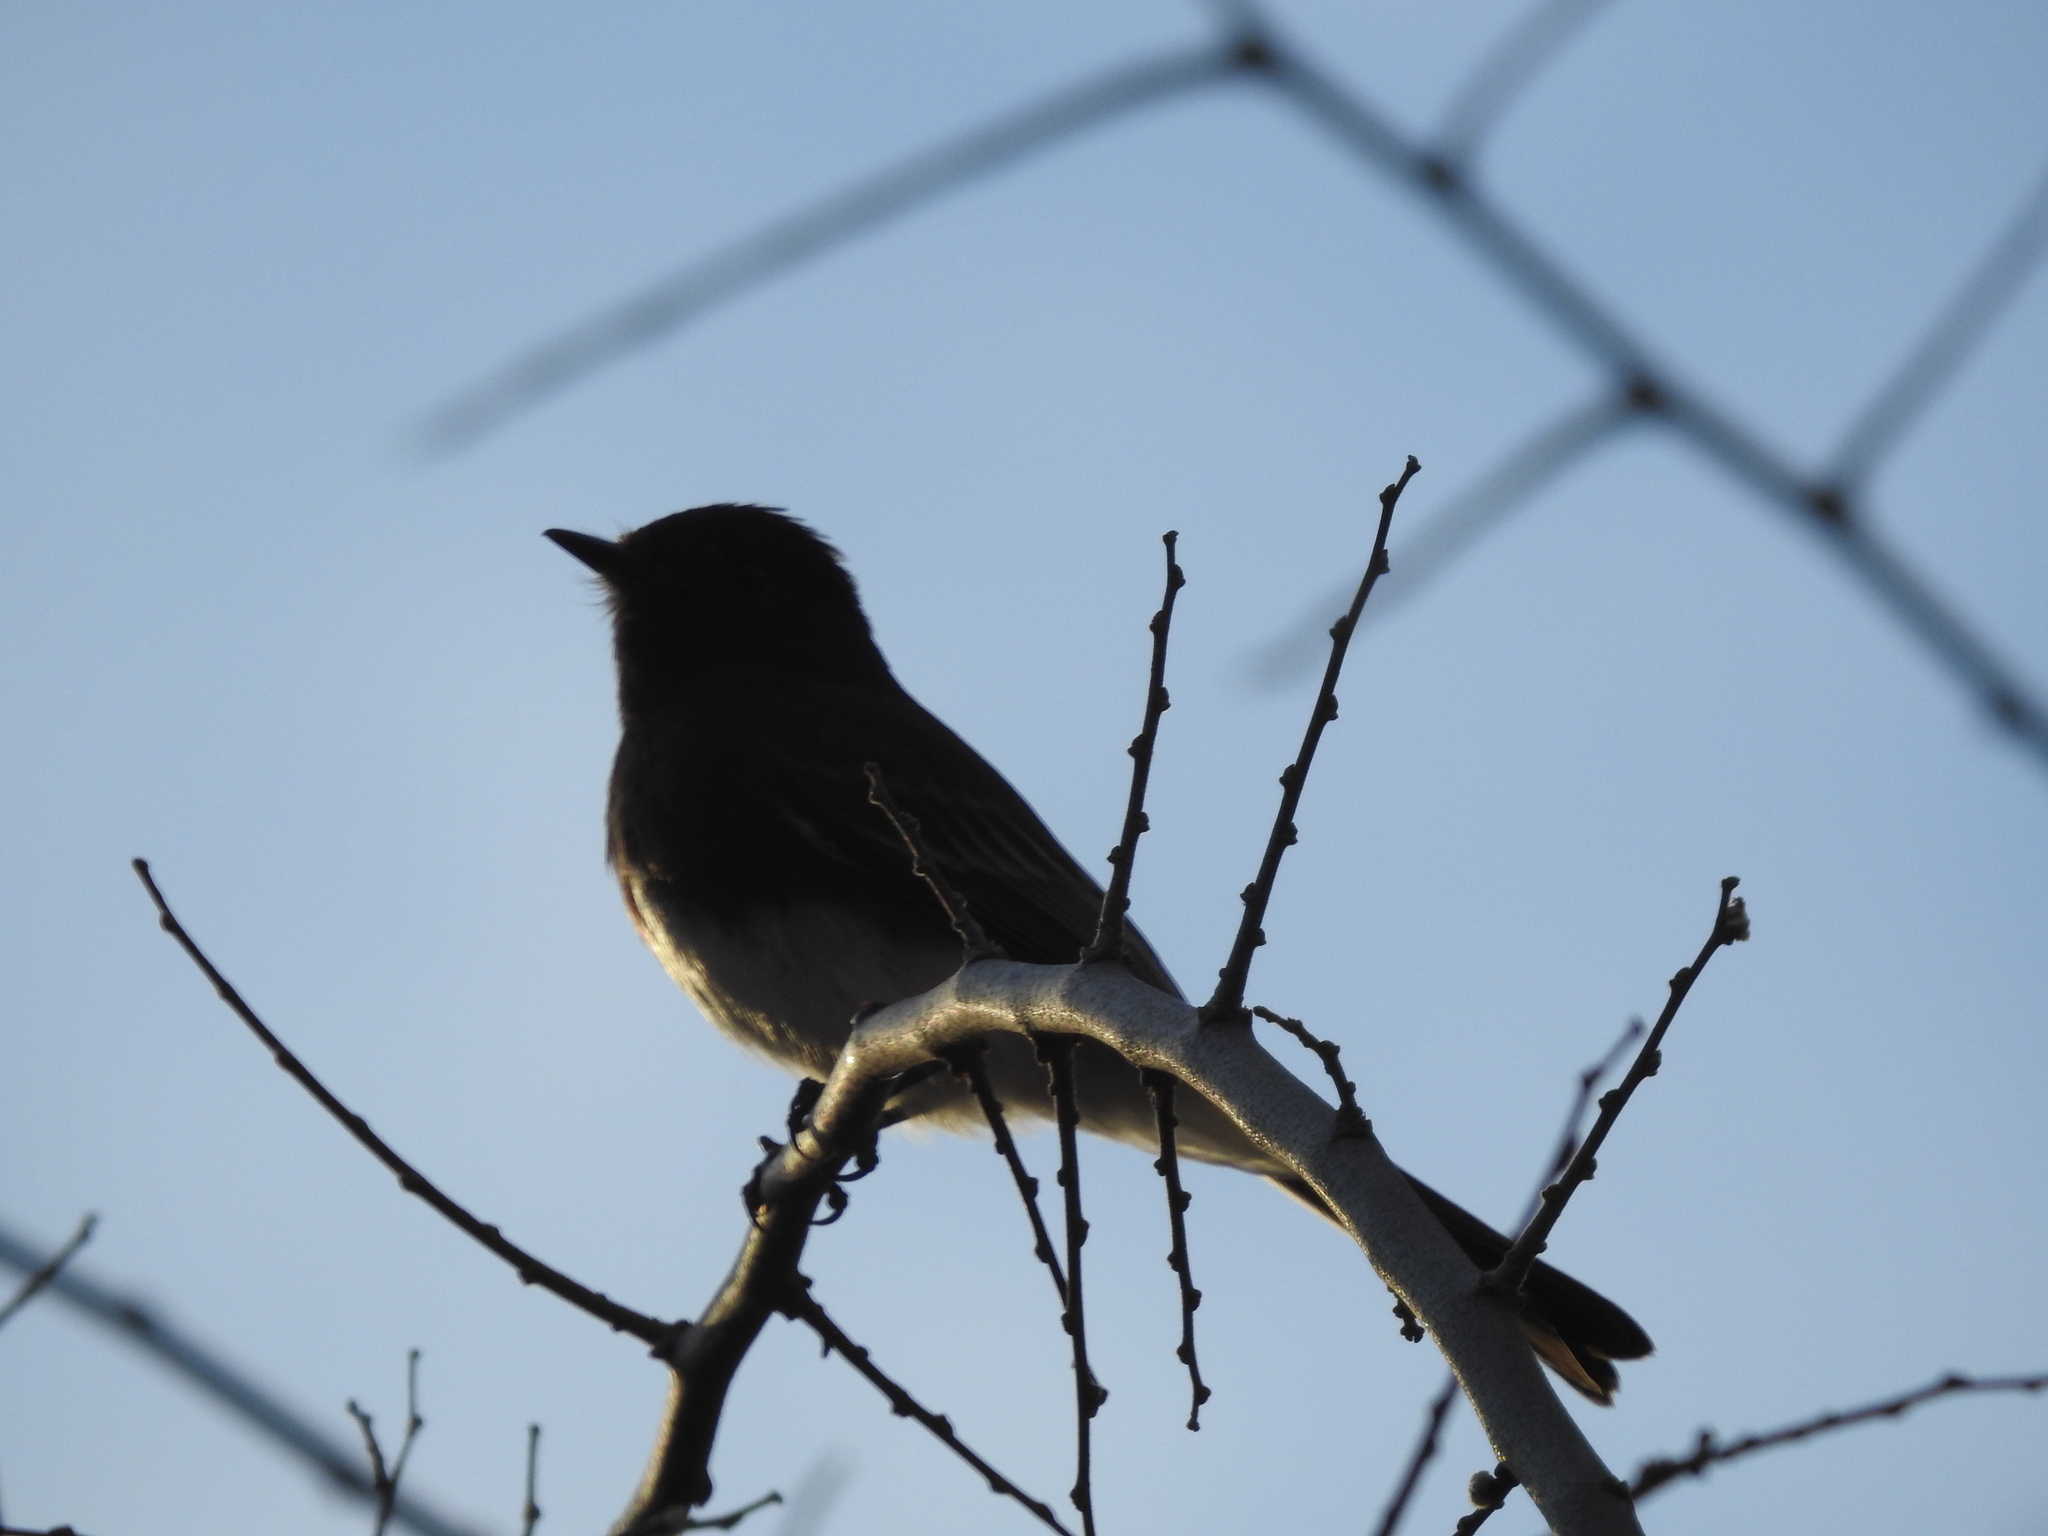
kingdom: Animalia
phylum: Chordata
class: Aves
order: Passeriformes
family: Tyrannidae
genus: Sayornis
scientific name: Sayornis nigricans
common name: Black phoebe
